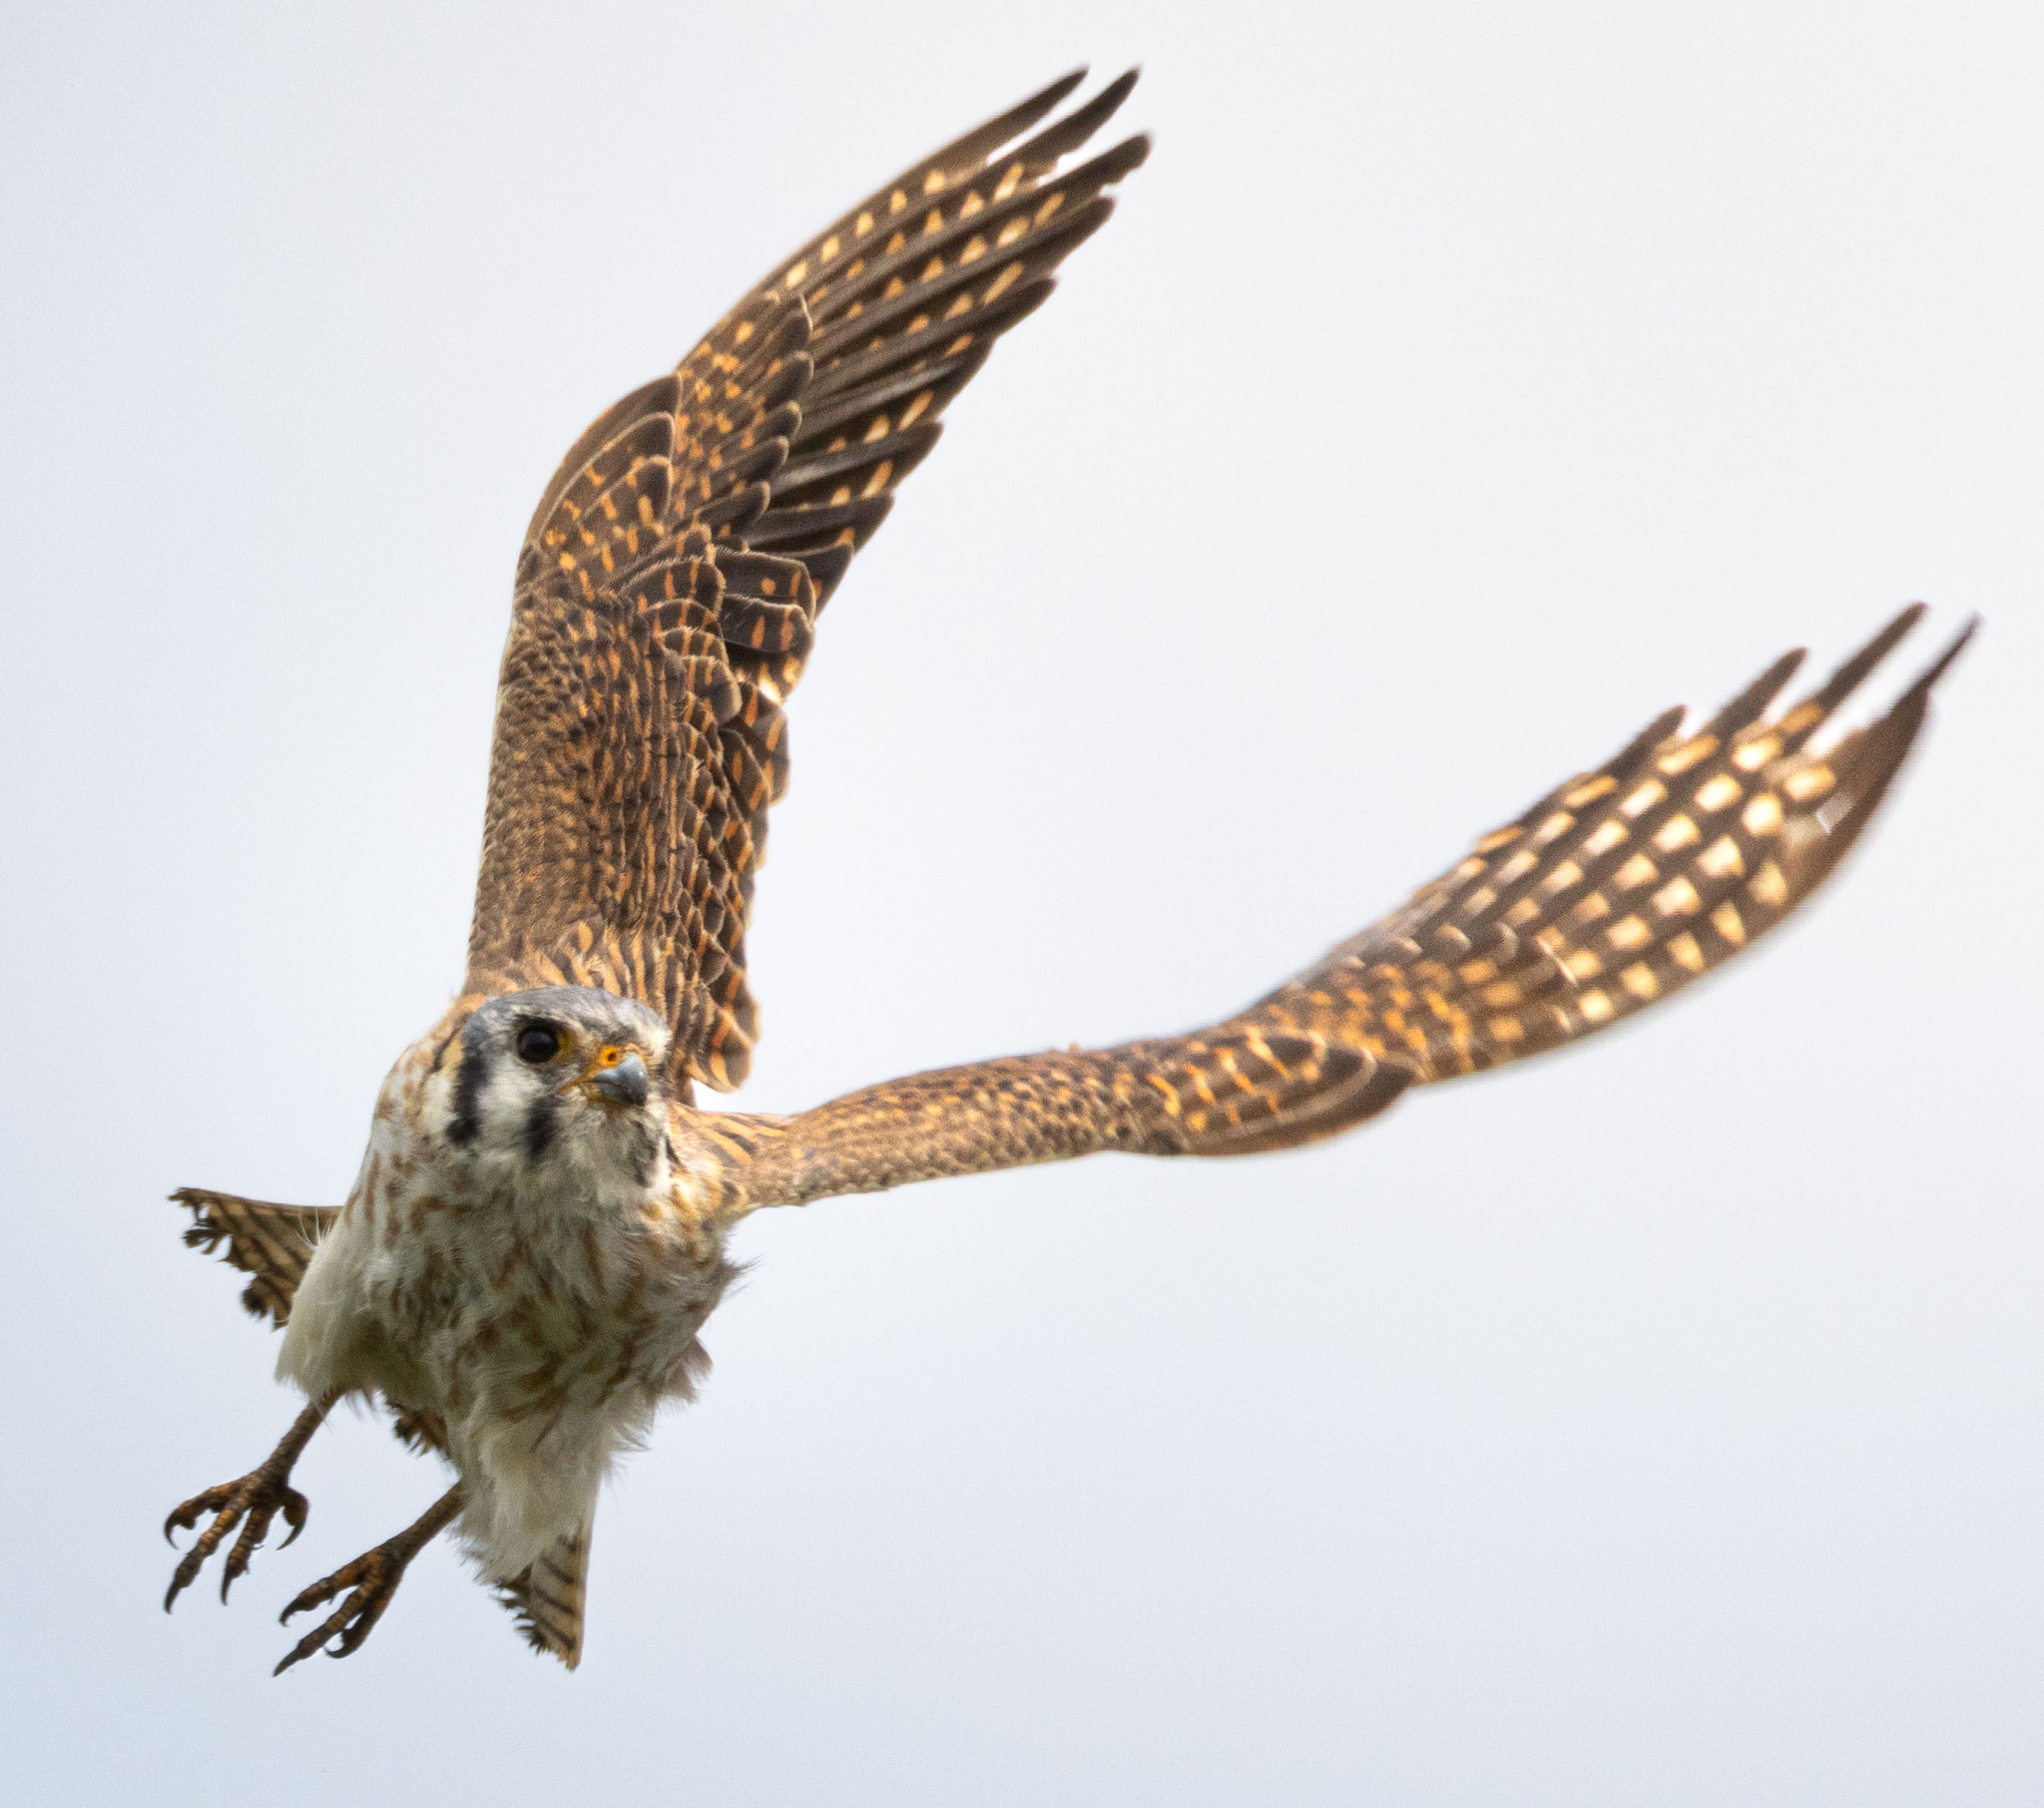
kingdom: Animalia
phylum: Chordata
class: Aves
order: Falconiformes
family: Falconidae
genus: Falco
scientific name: Falco sparverius
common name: American kestrel
